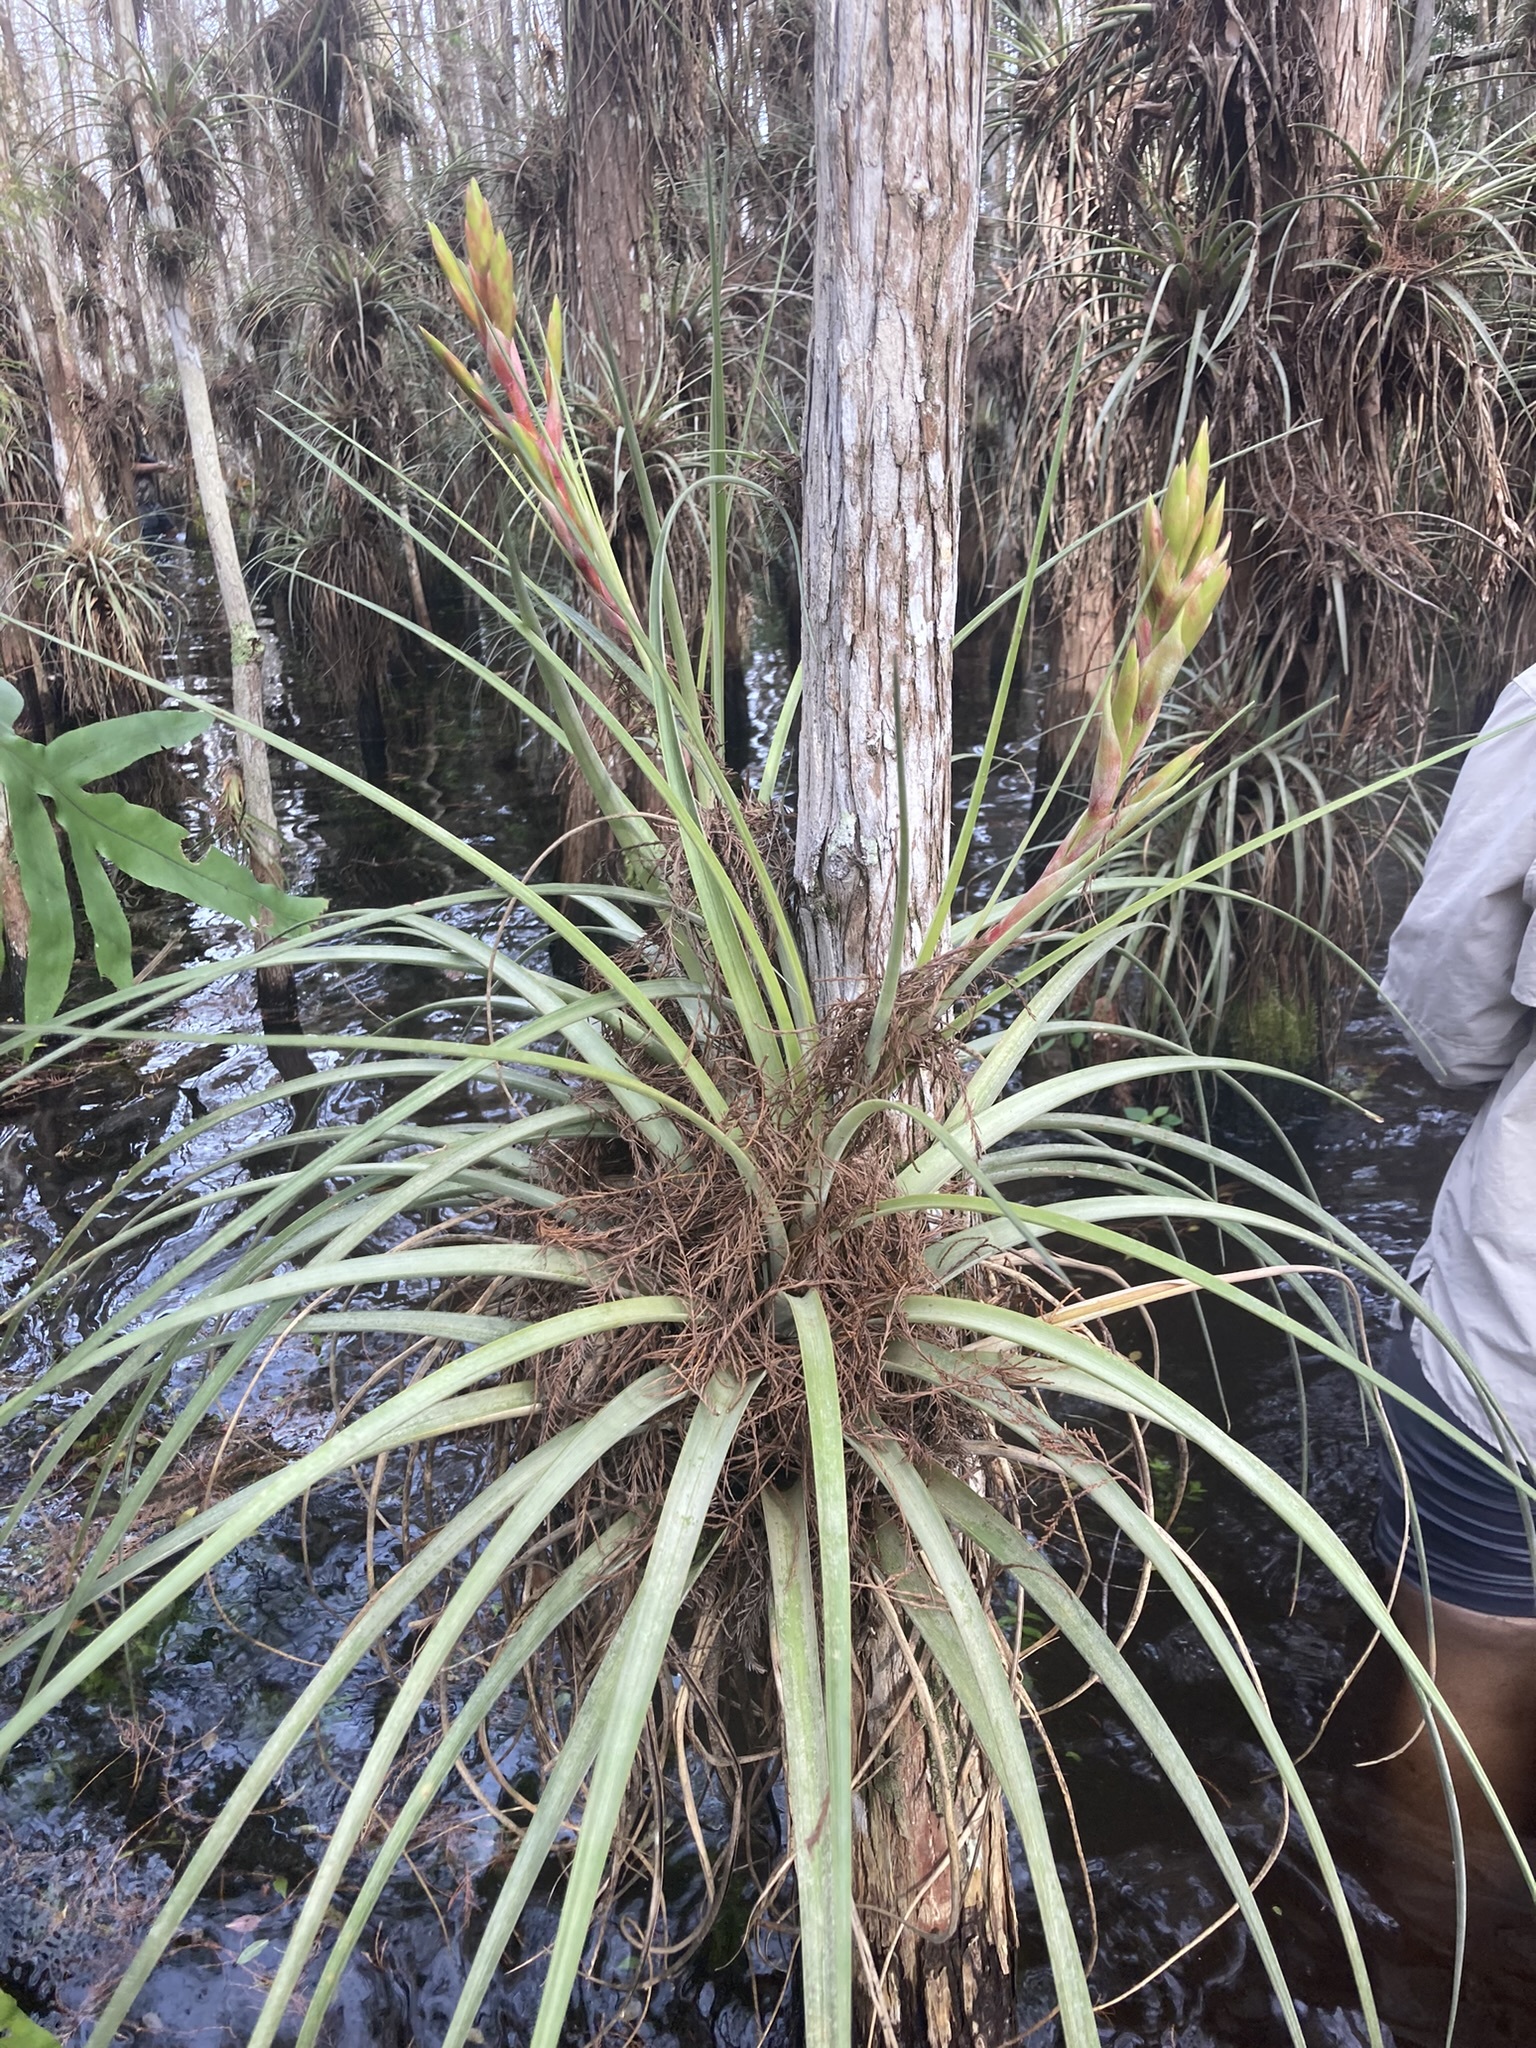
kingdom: Plantae
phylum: Tracheophyta
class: Liliopsida
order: Poales
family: Bromeliaceae
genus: Tillandsia
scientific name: Tillandsia fasciculata
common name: Giant airplant
